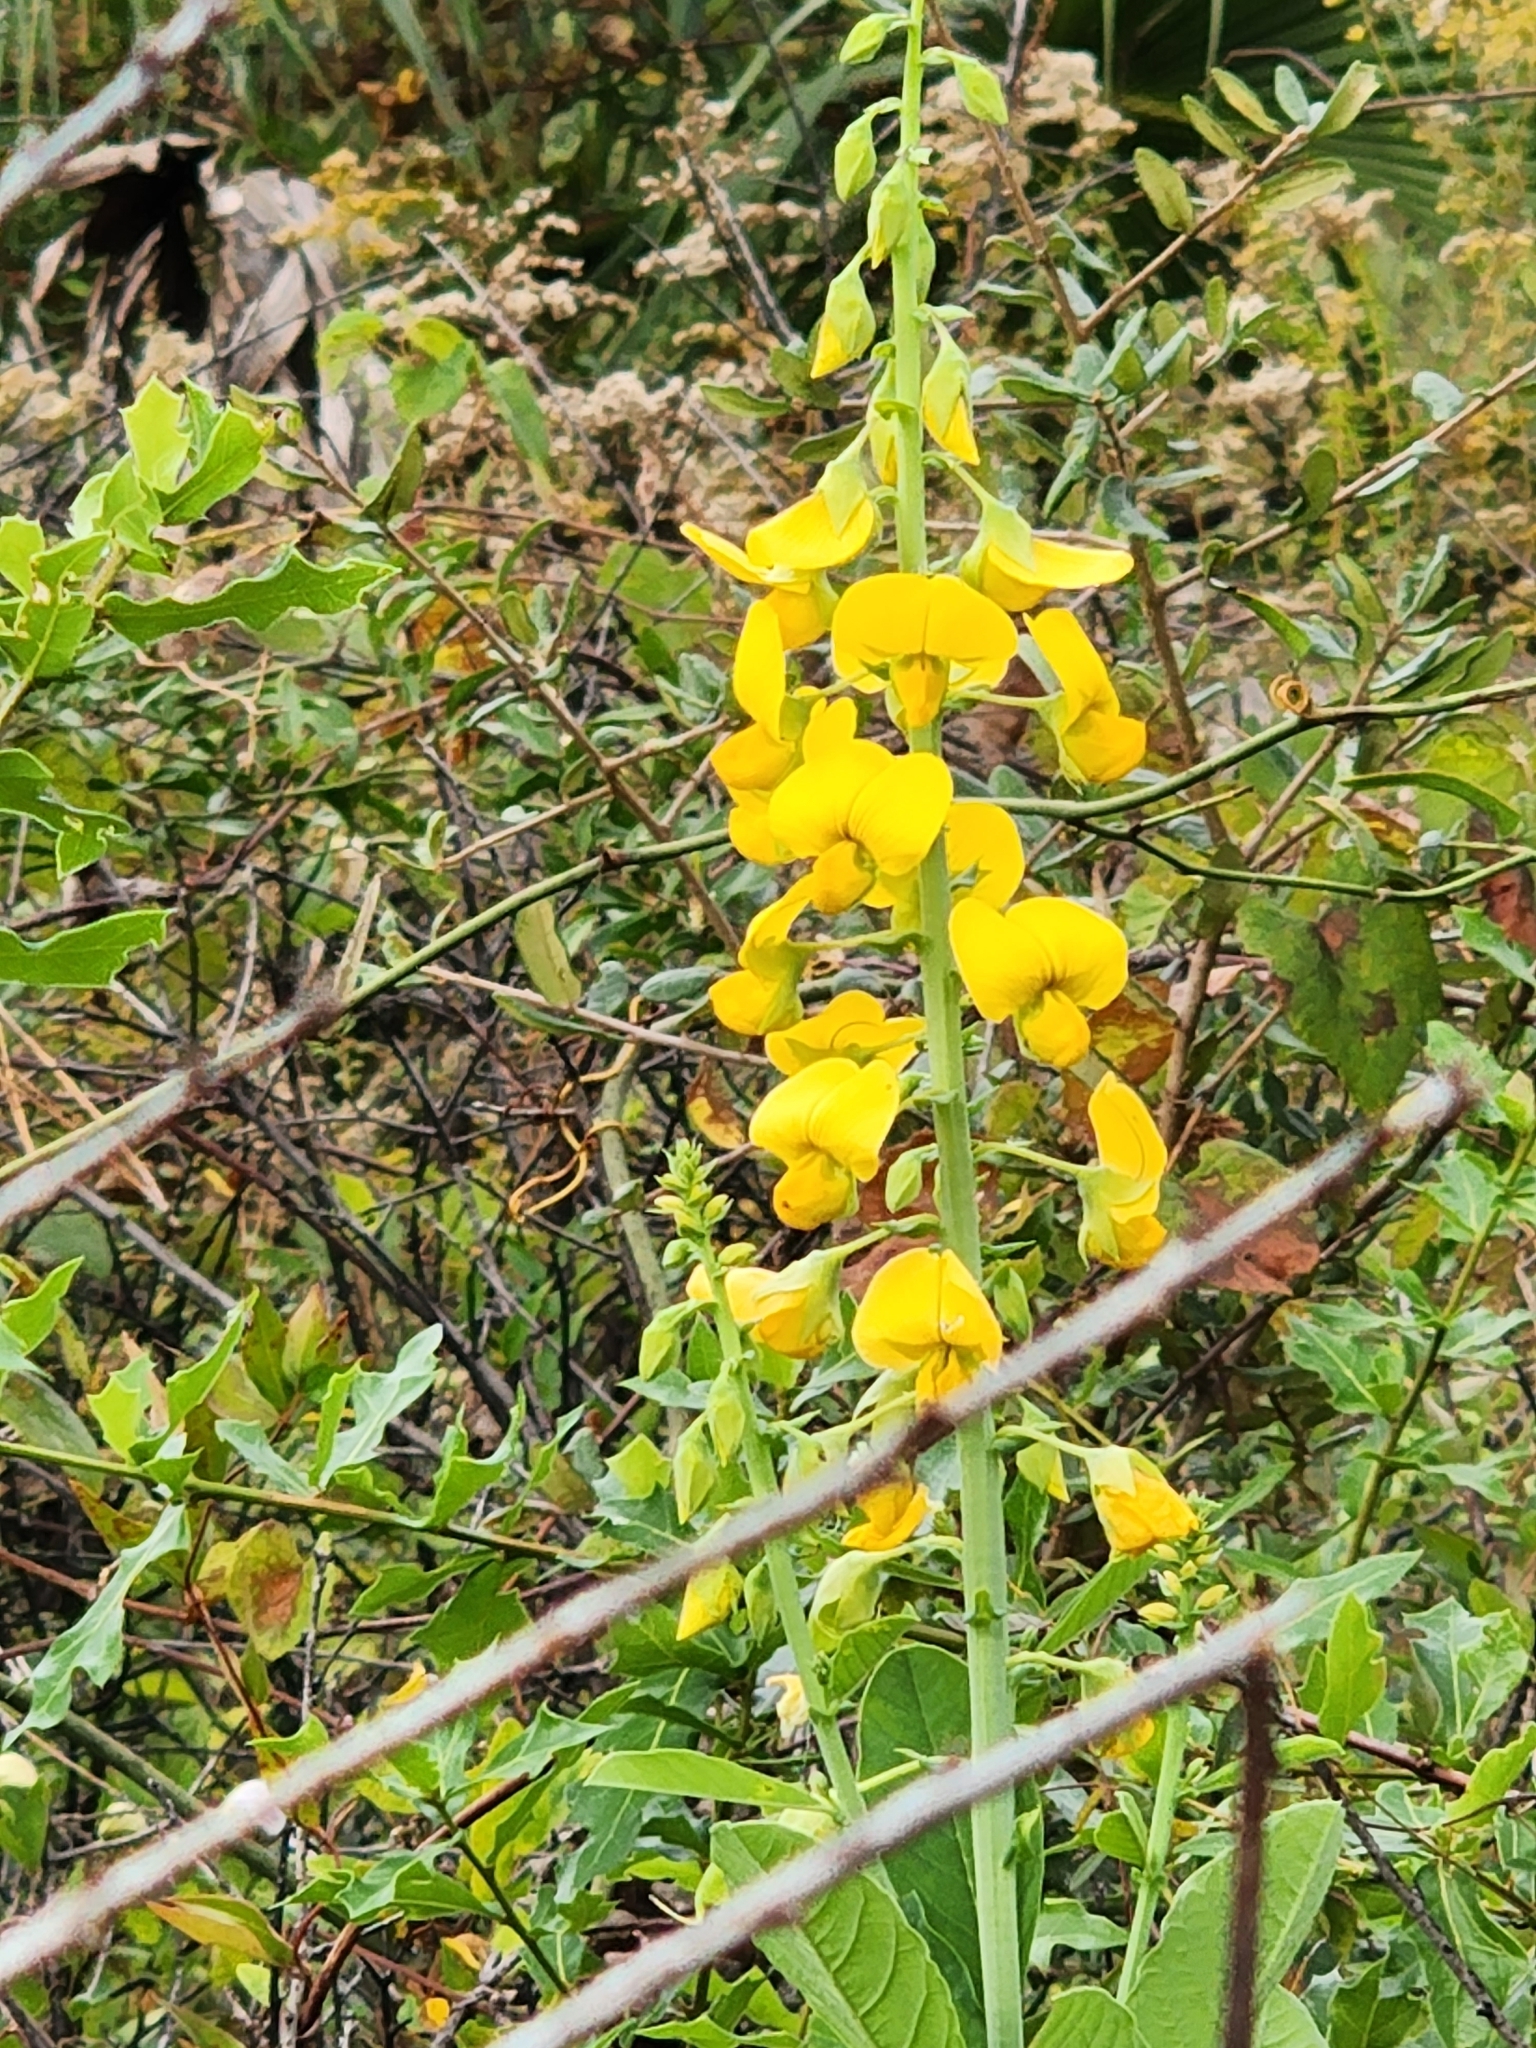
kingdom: Plantae
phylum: Tracheophyta
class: Magnoliopsida
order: Fabales
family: Fabaceae
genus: Crotalaria
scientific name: Crotalaria spectabilis
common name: Showy rattlebox
